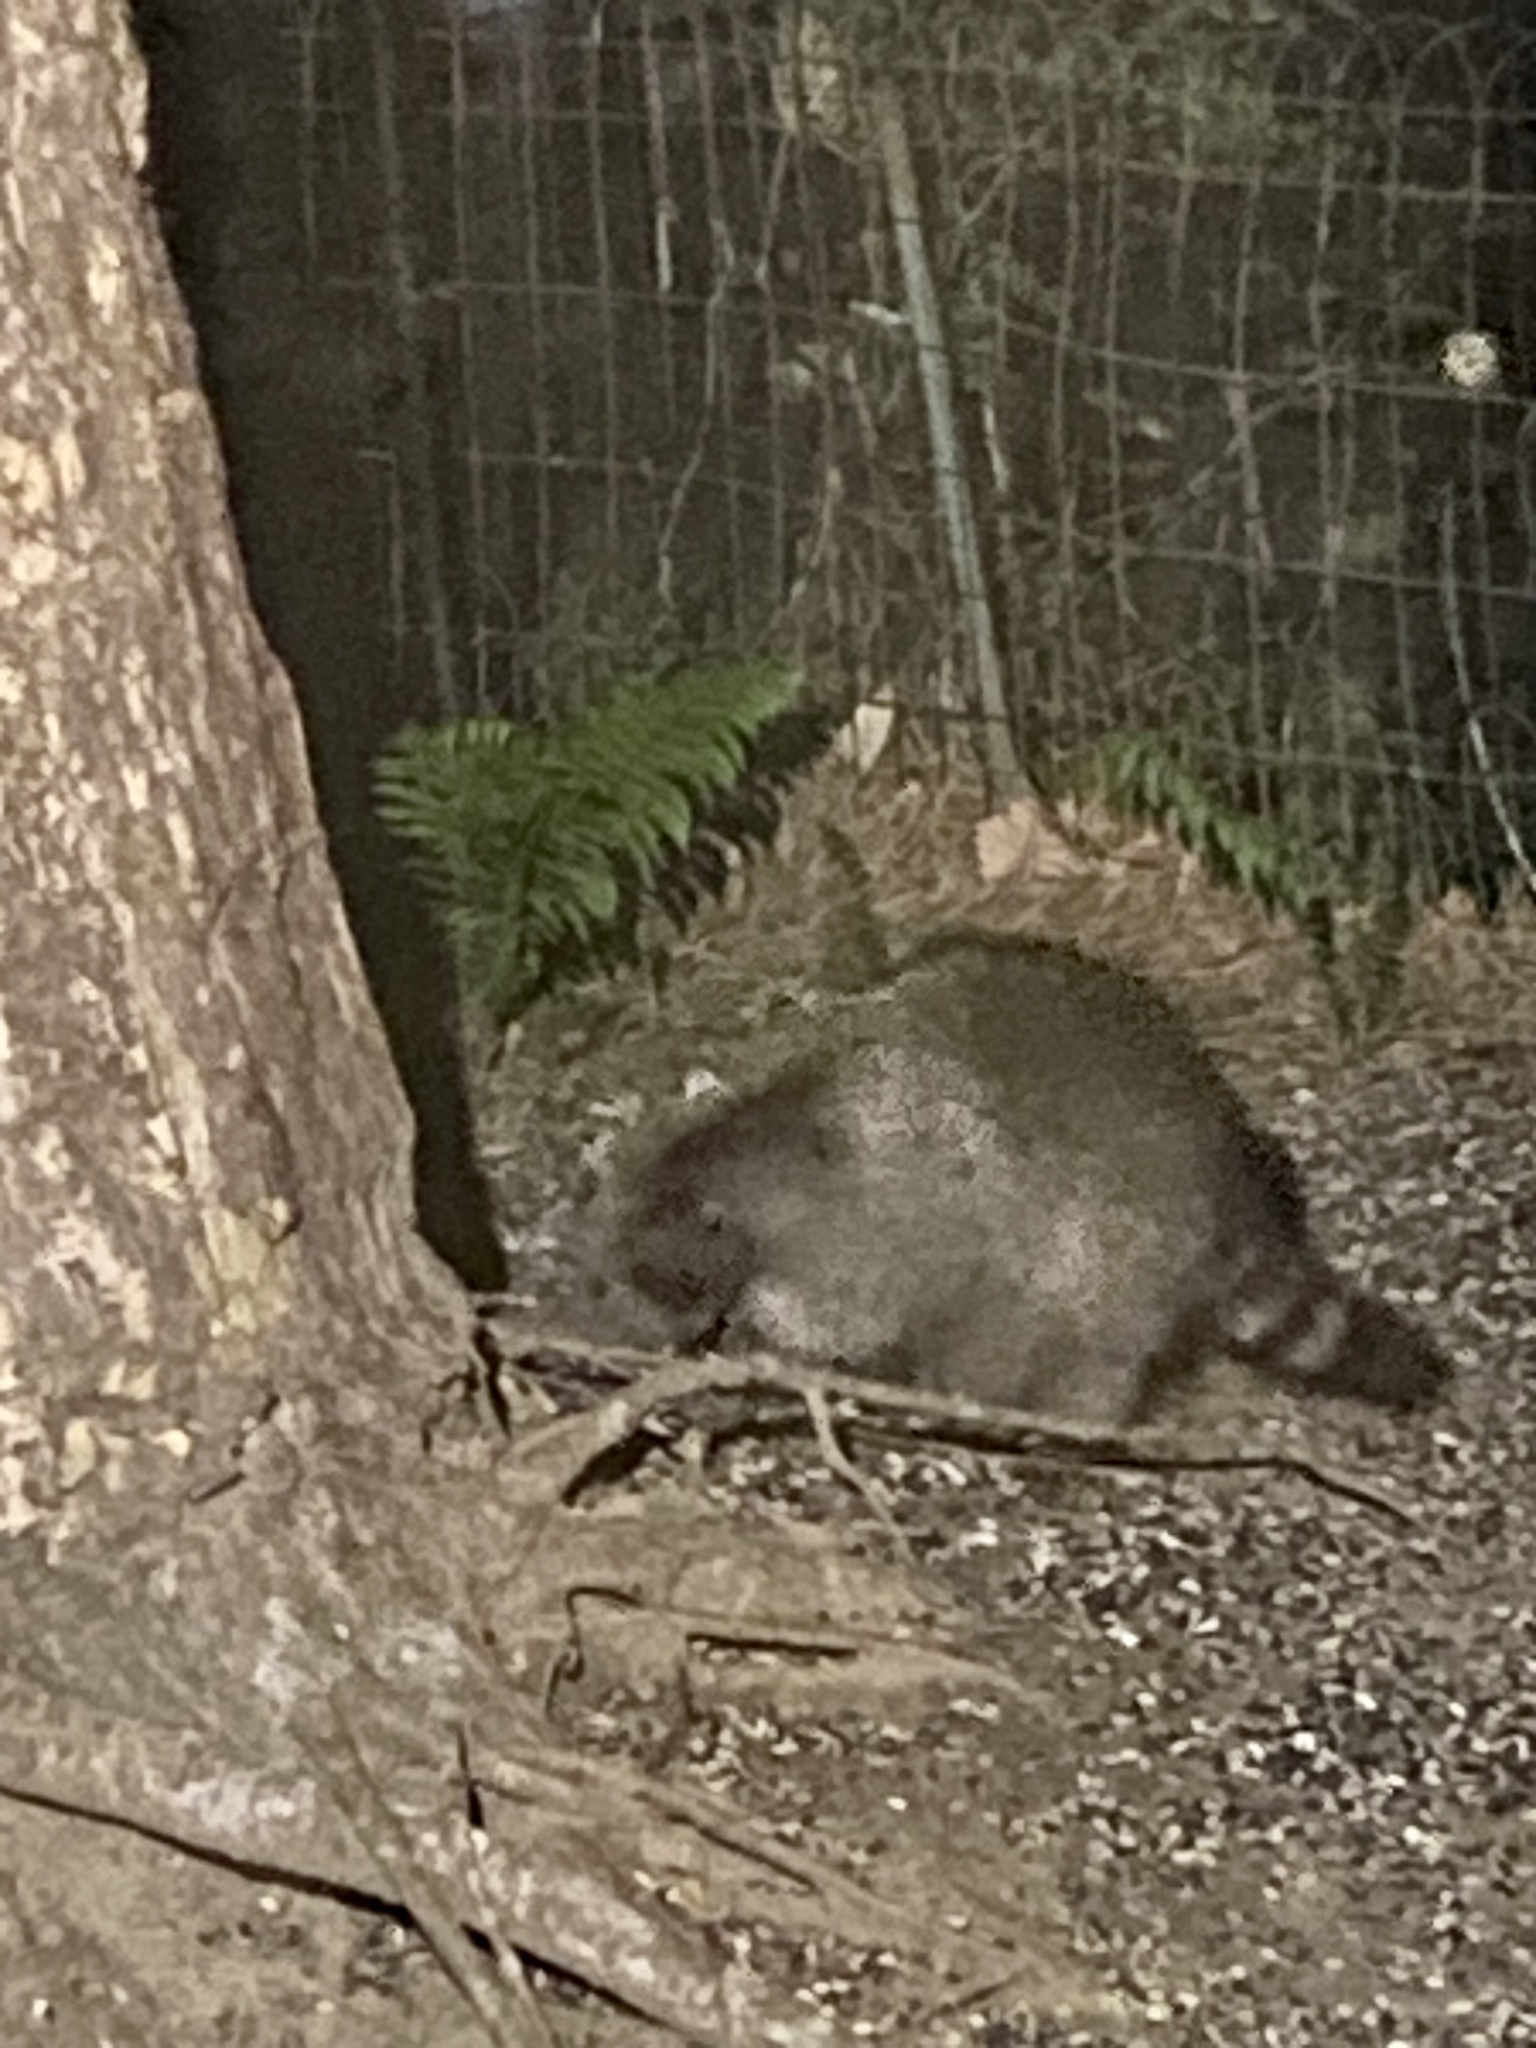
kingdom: Animalia
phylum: Chordata
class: Mammalia
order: Carnivora
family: Procyonidae
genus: Procyon
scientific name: Procyon lotor
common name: Raccoon
